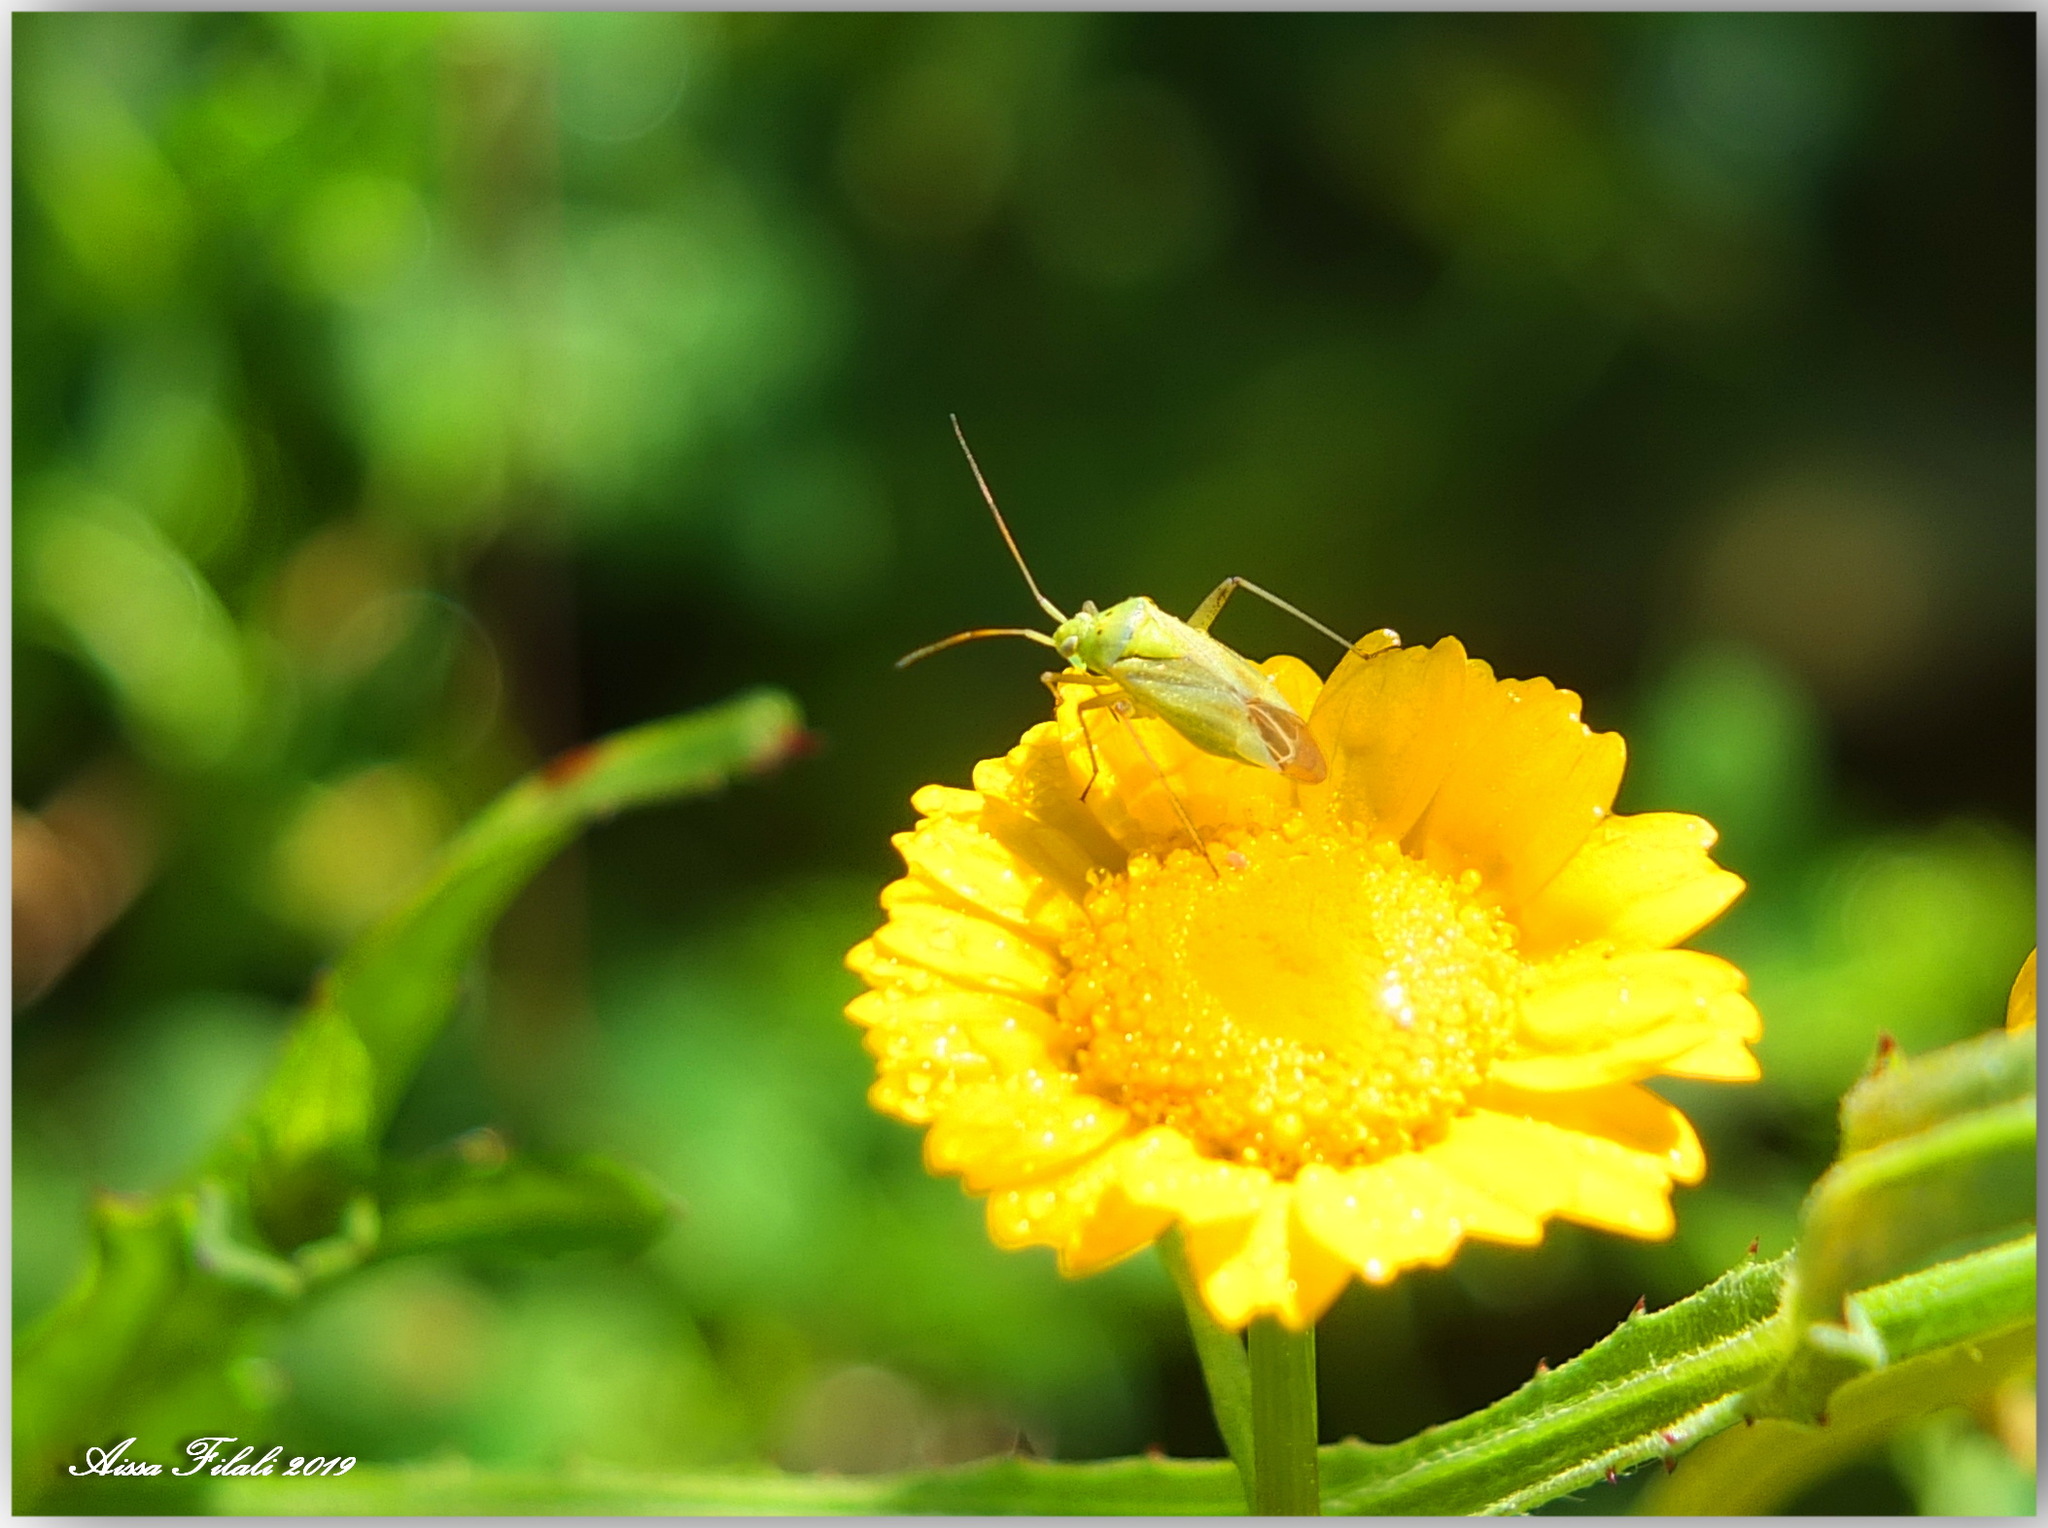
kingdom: Animalia
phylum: Arthropoda
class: Insecta
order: Hemiptera
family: Miridae
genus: Closterotomus
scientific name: Closterotomus norvegicus
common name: Plant bug
